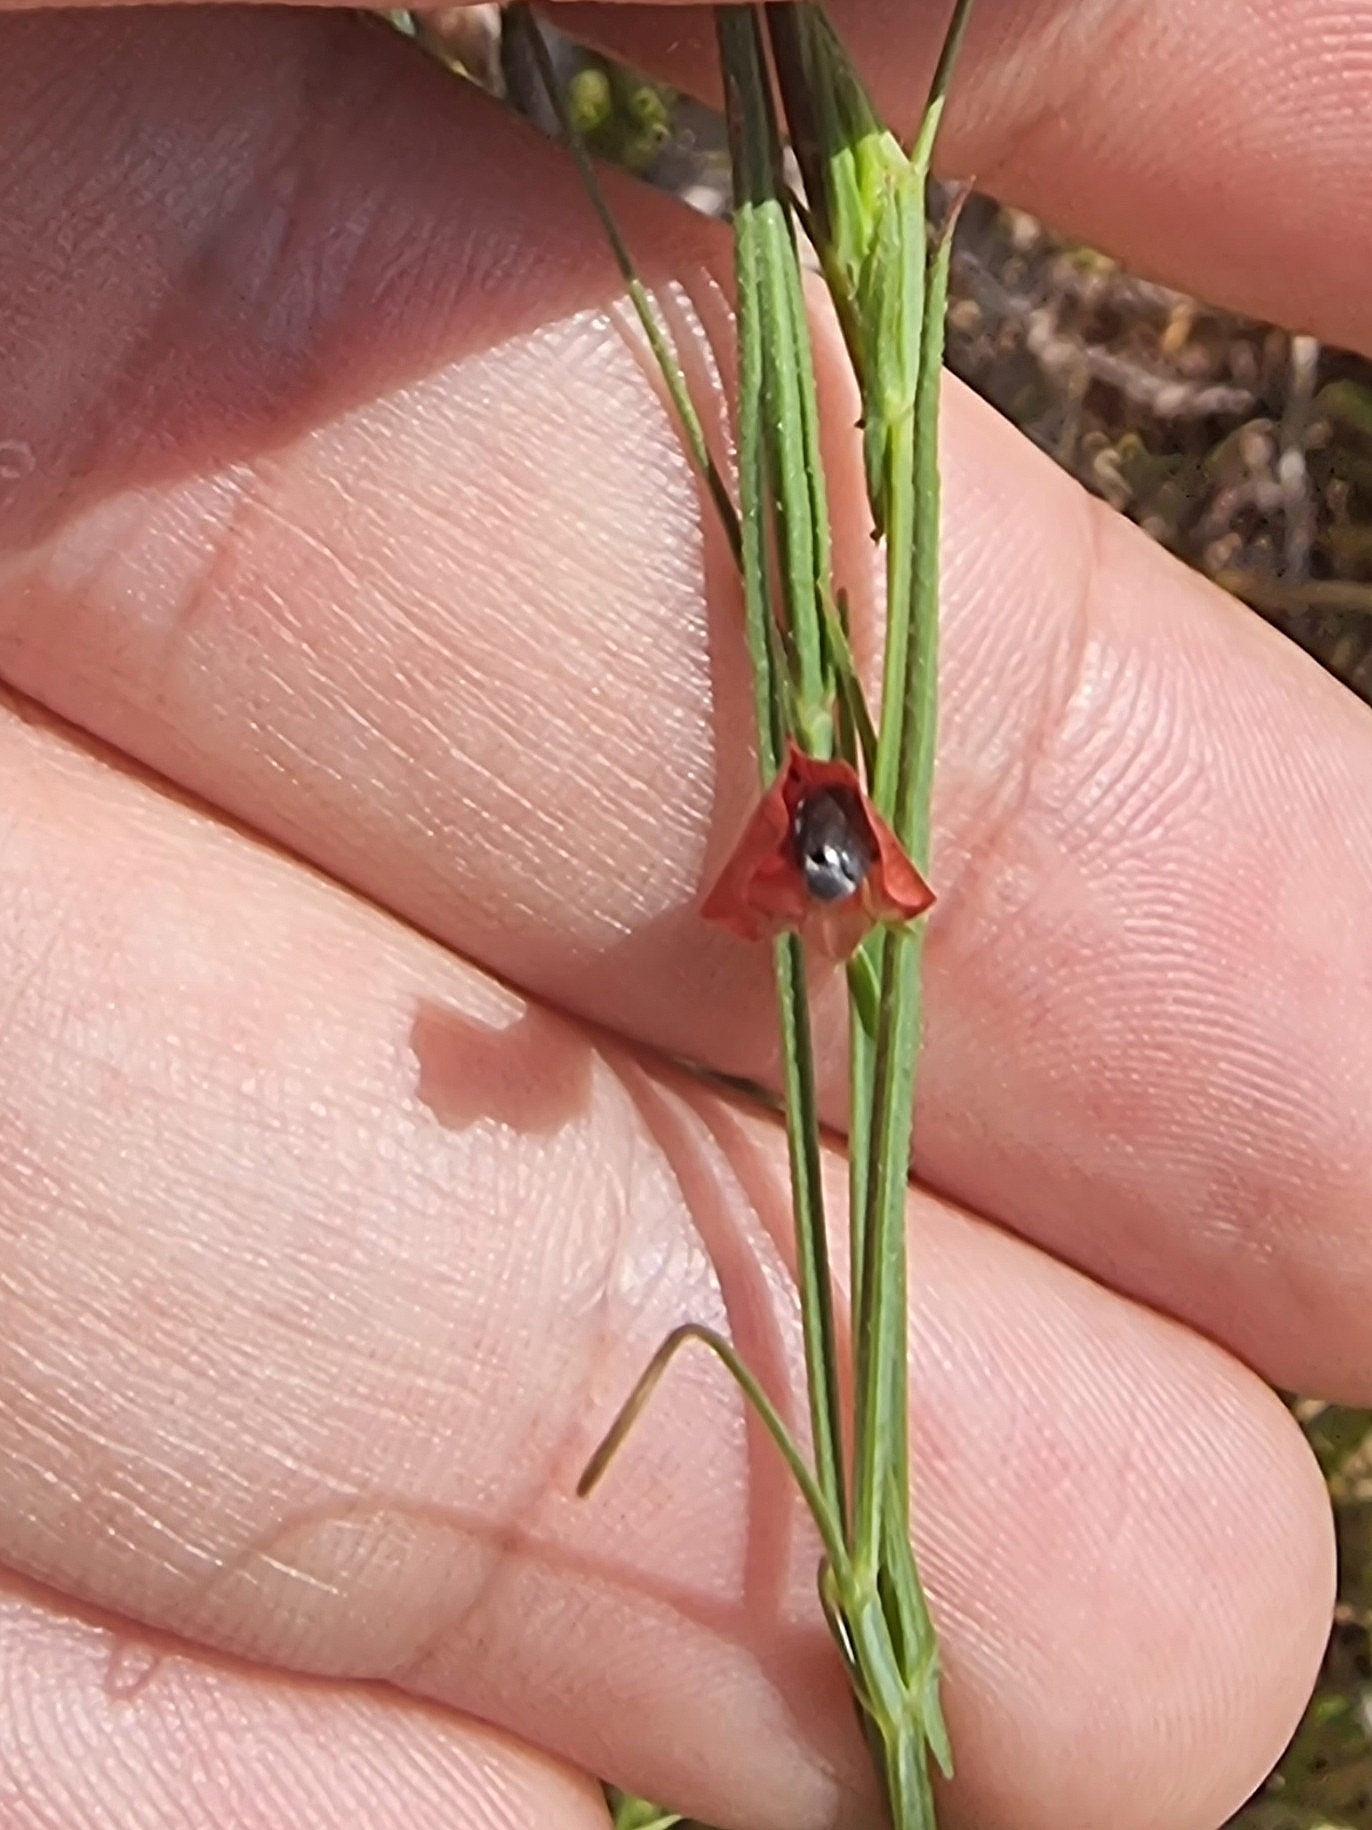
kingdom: Plantae
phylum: Tracheophyta
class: Magnoliopsida
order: Fabales
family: Fabaceae
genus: Lathyrus
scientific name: Lathyrus sphaericus
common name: Grass pea
